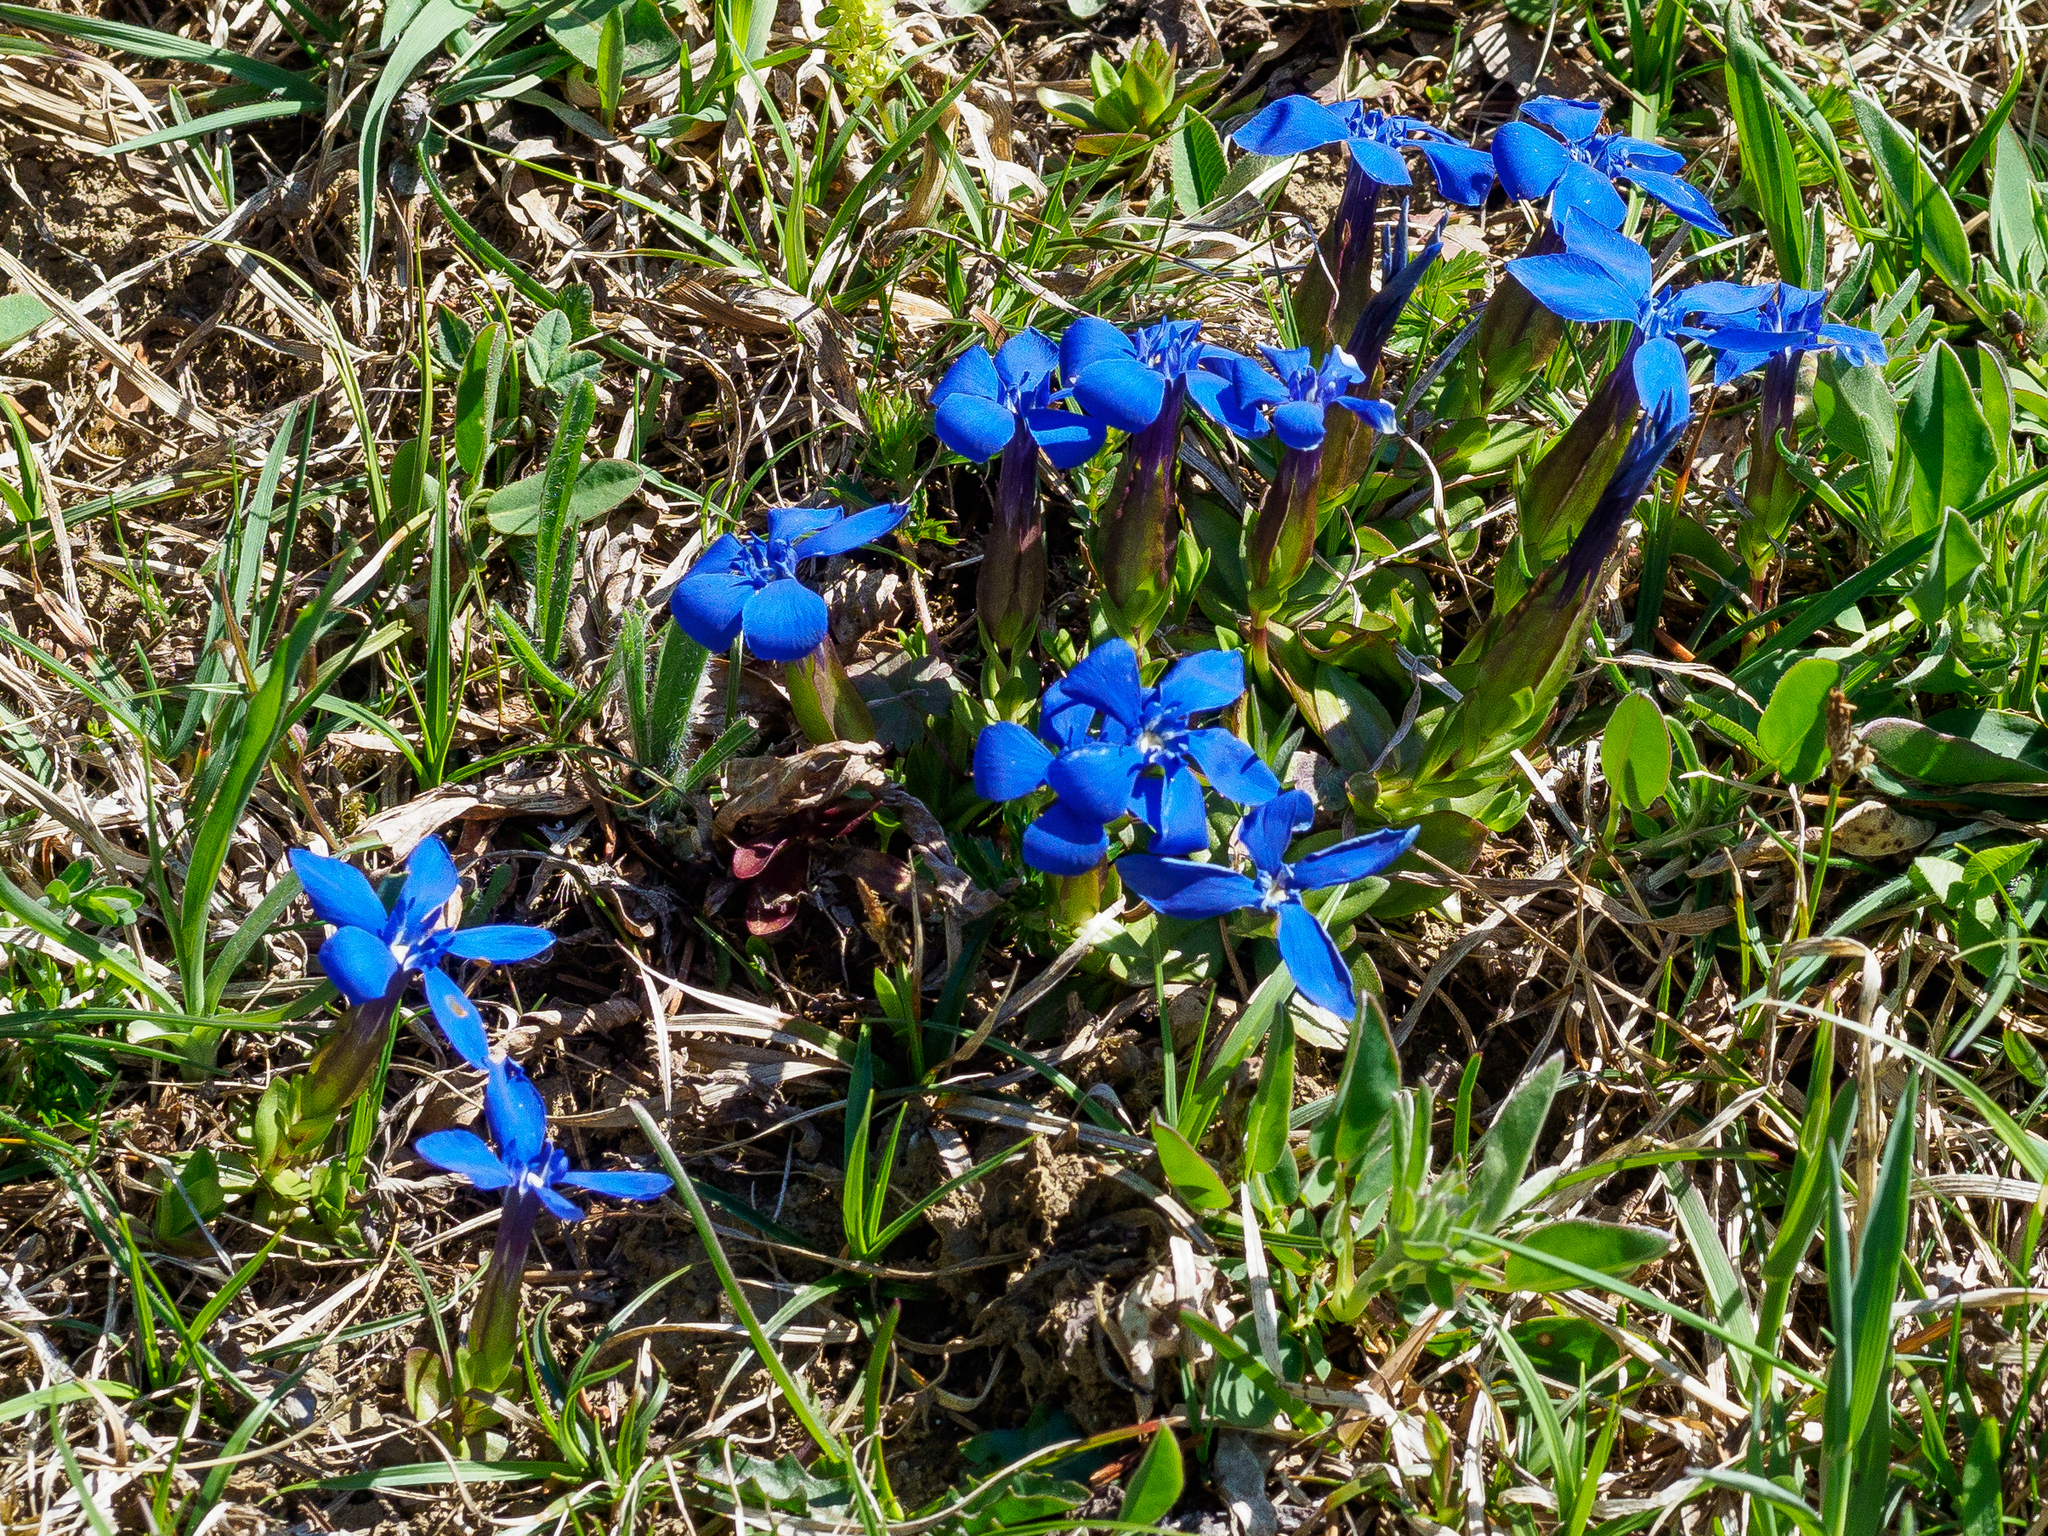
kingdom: Plantae
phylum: Tracheophyta
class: Magnoliopsida
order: Gentianales
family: Gentianaceae
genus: Gentiana
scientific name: Gentiana verna
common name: Spring gentian
